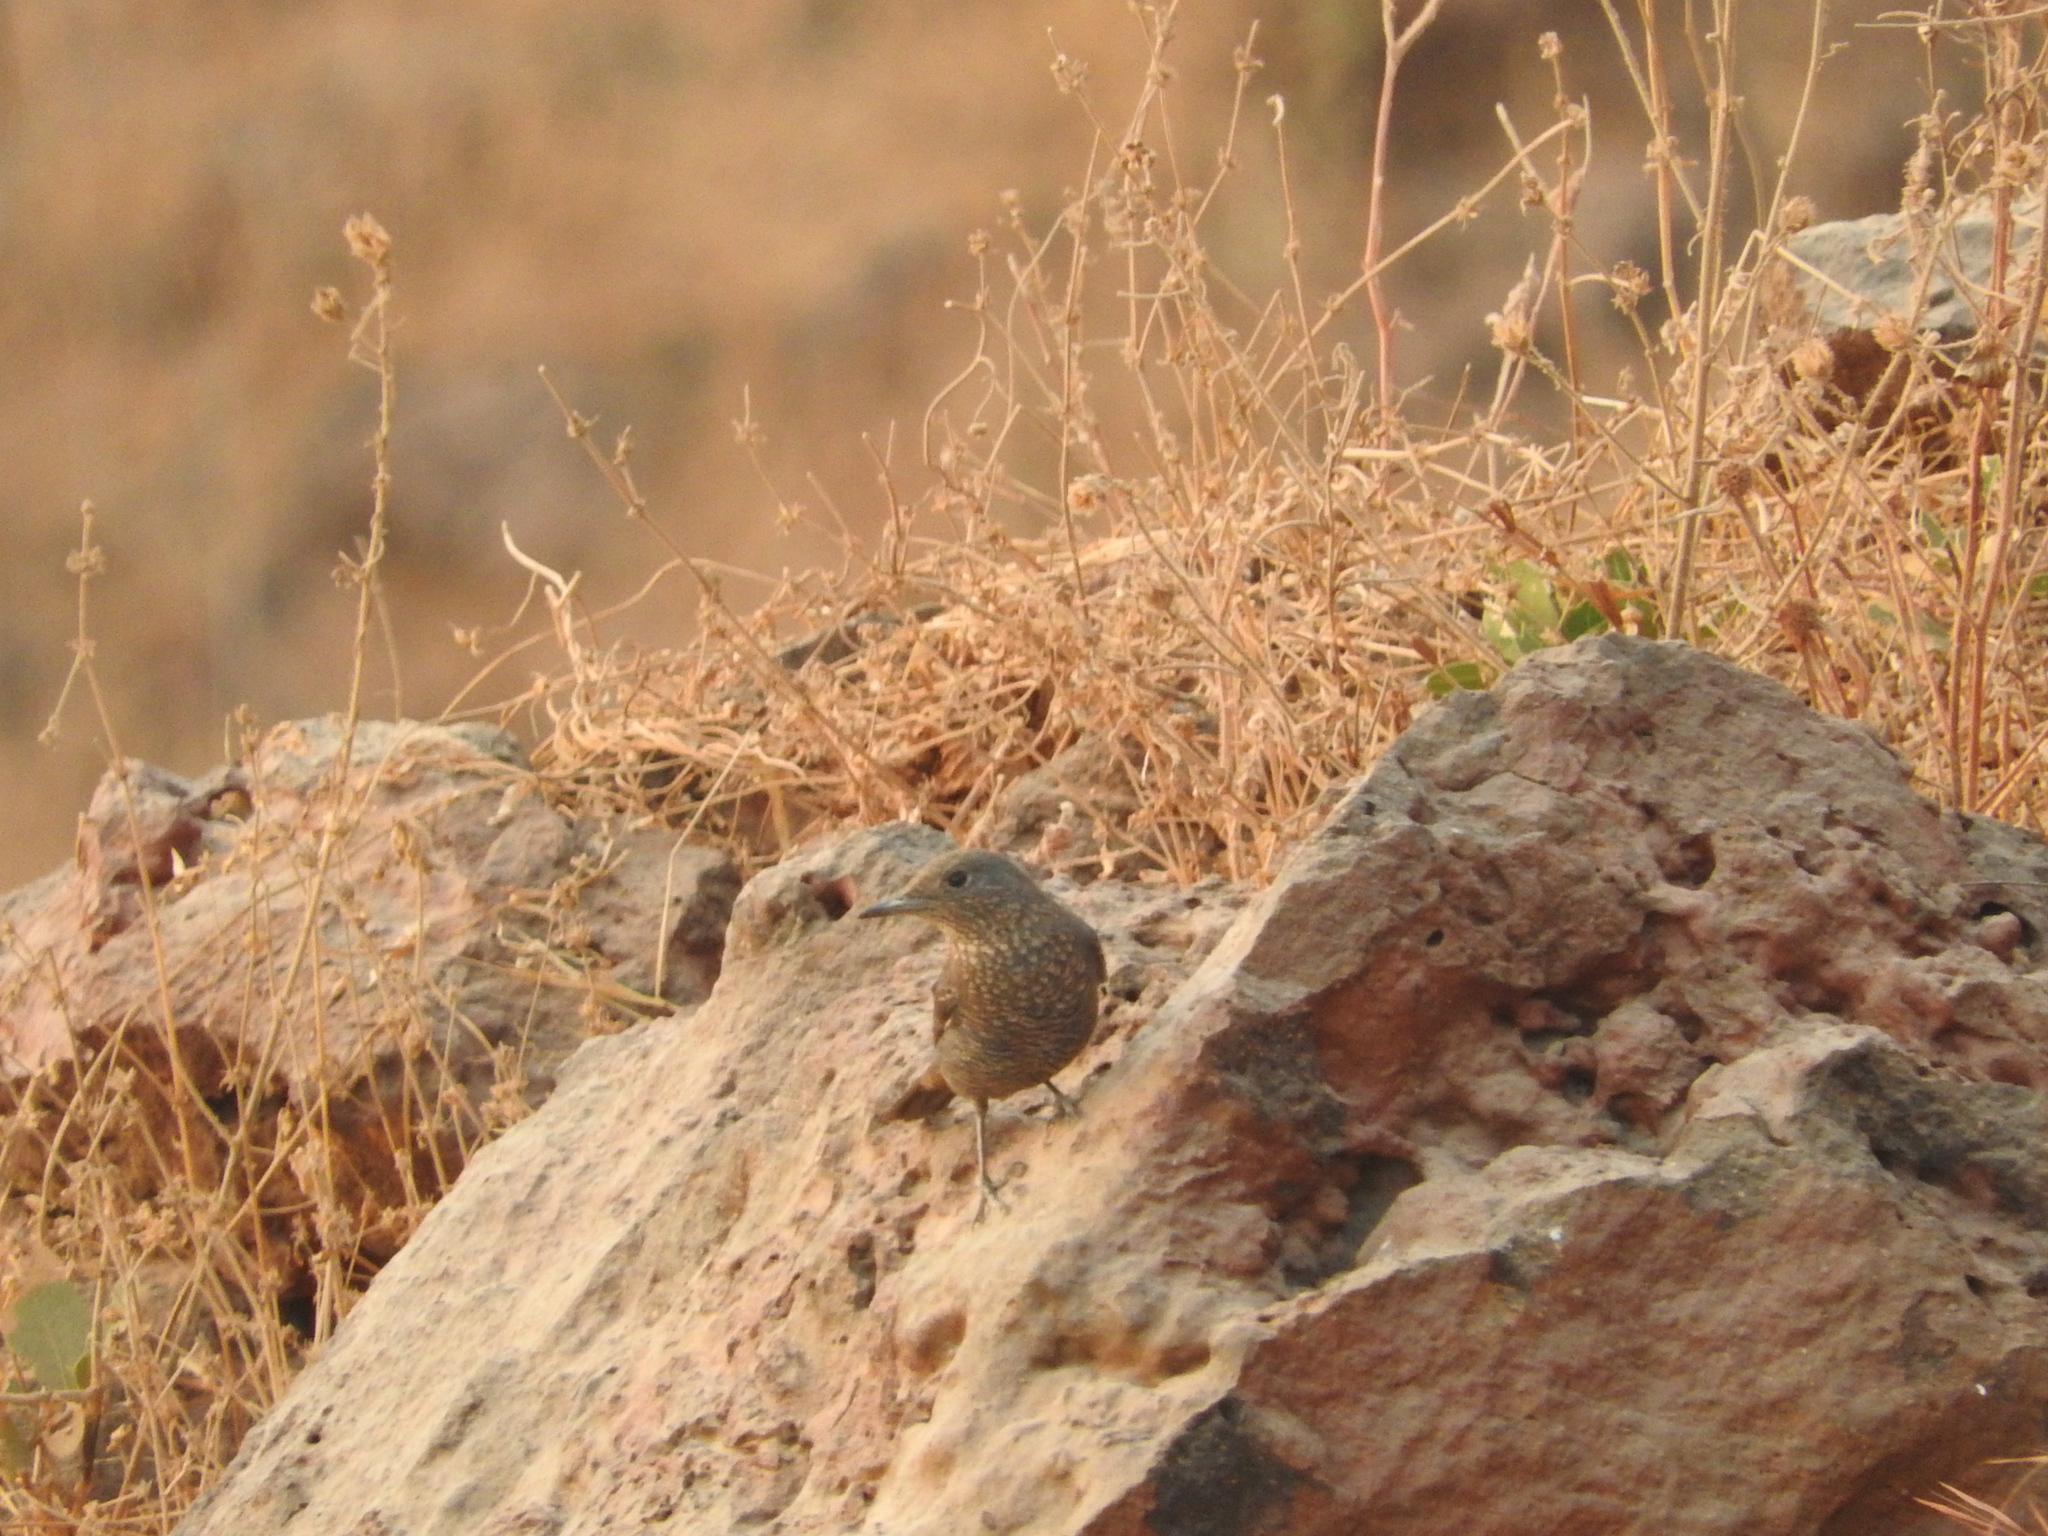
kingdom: Animalia
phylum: Chordata
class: Aves
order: Passeriformes
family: Muscicapidae
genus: Monticola
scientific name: Monticola solitarius
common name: Blue rock thrush
